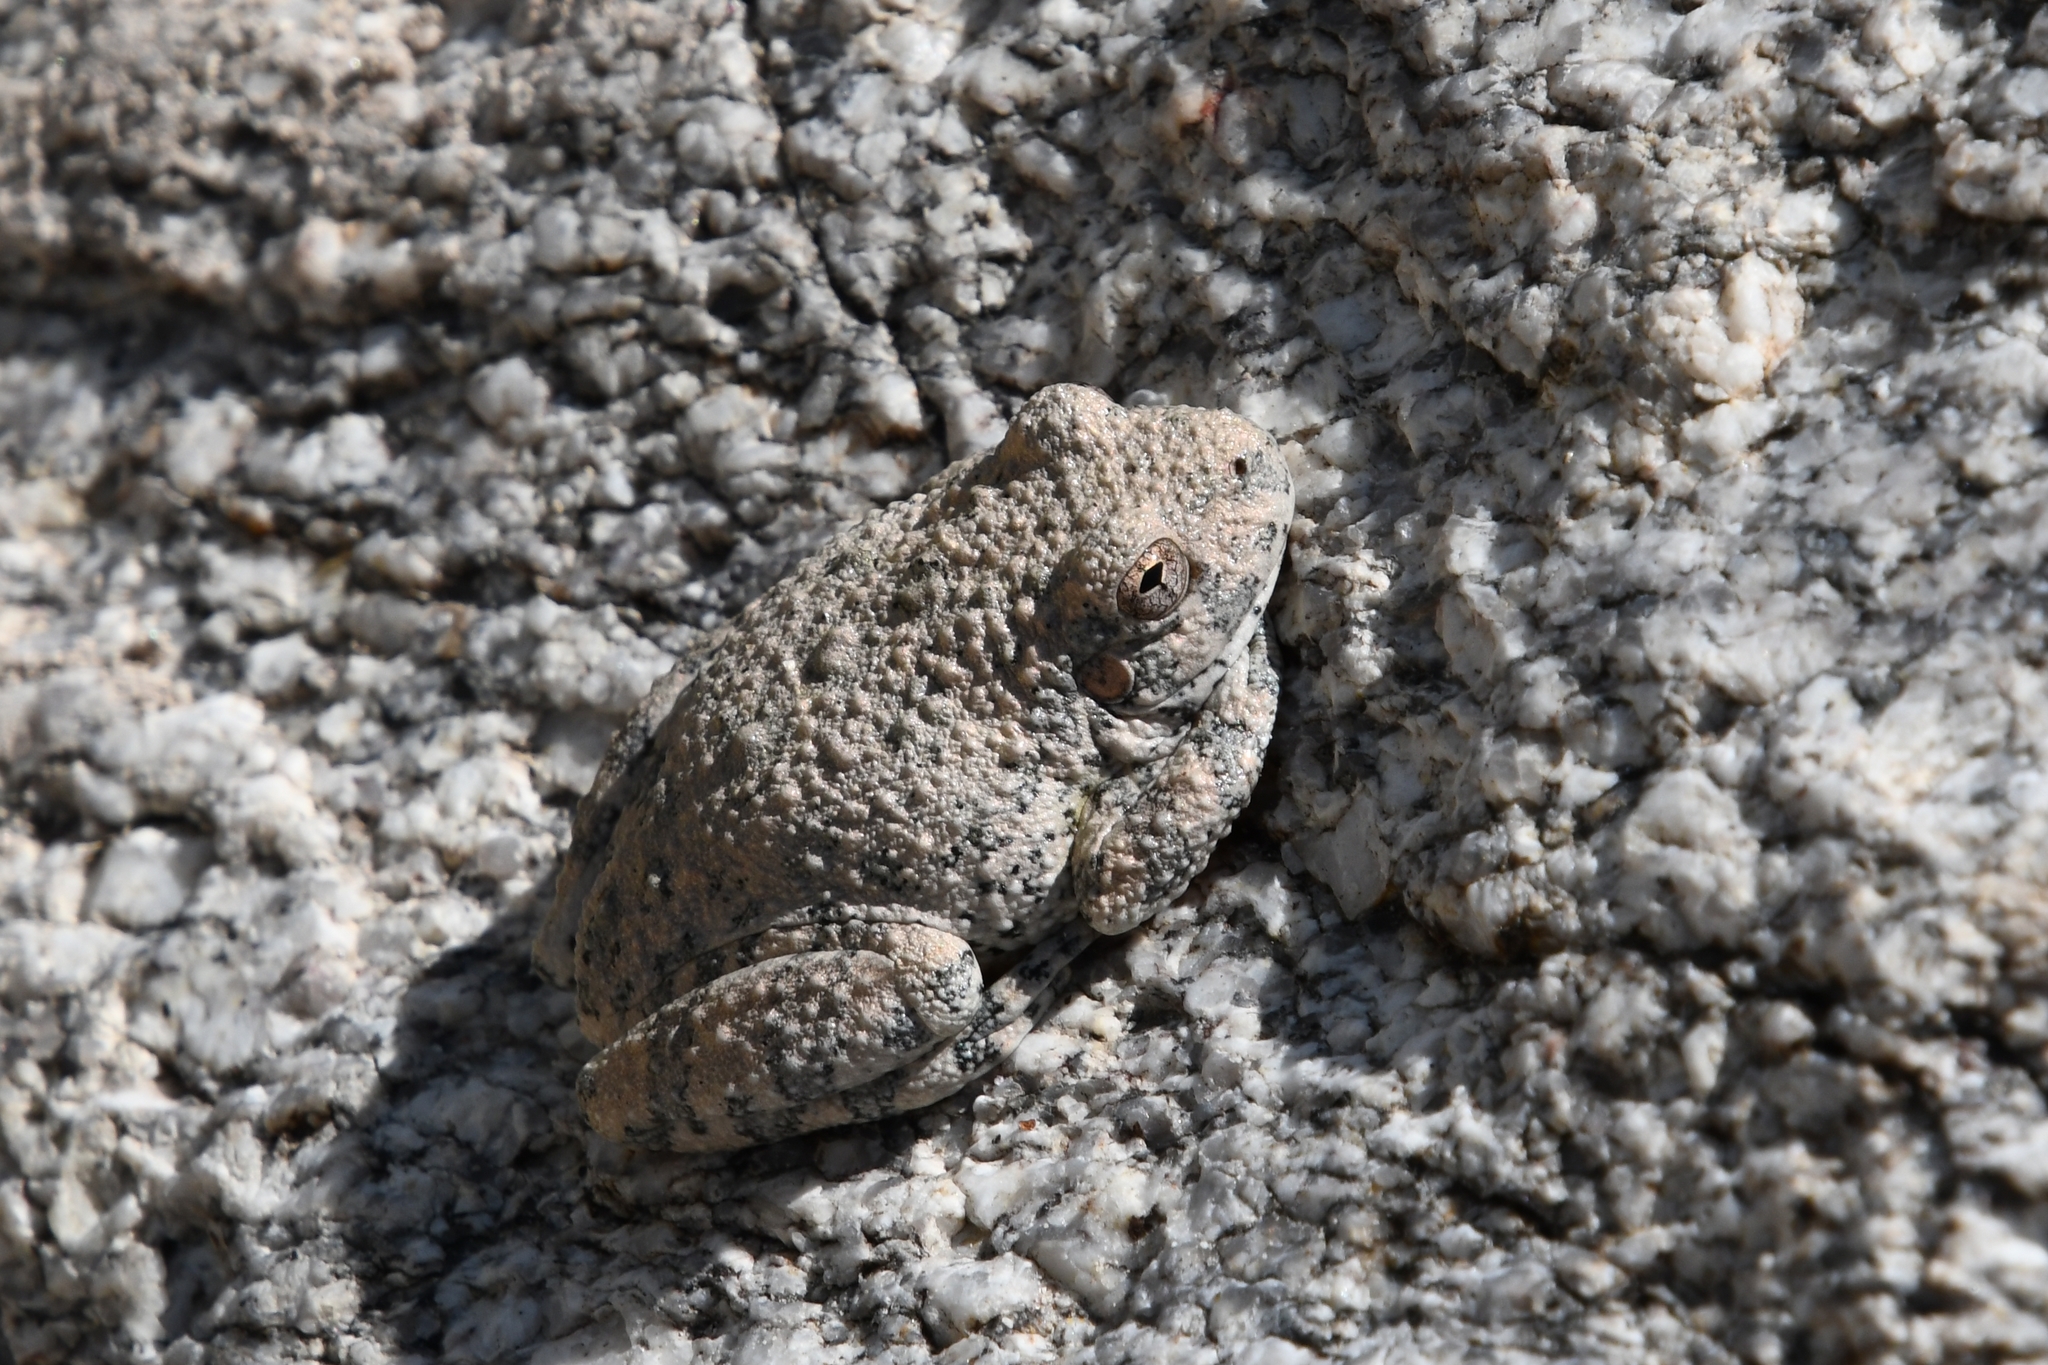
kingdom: Animalia
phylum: Chordata
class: Amphibia
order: Anura
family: Hylidae
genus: Dryophytes
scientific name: Dryophytes arenicolor
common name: Canyon treefrog
